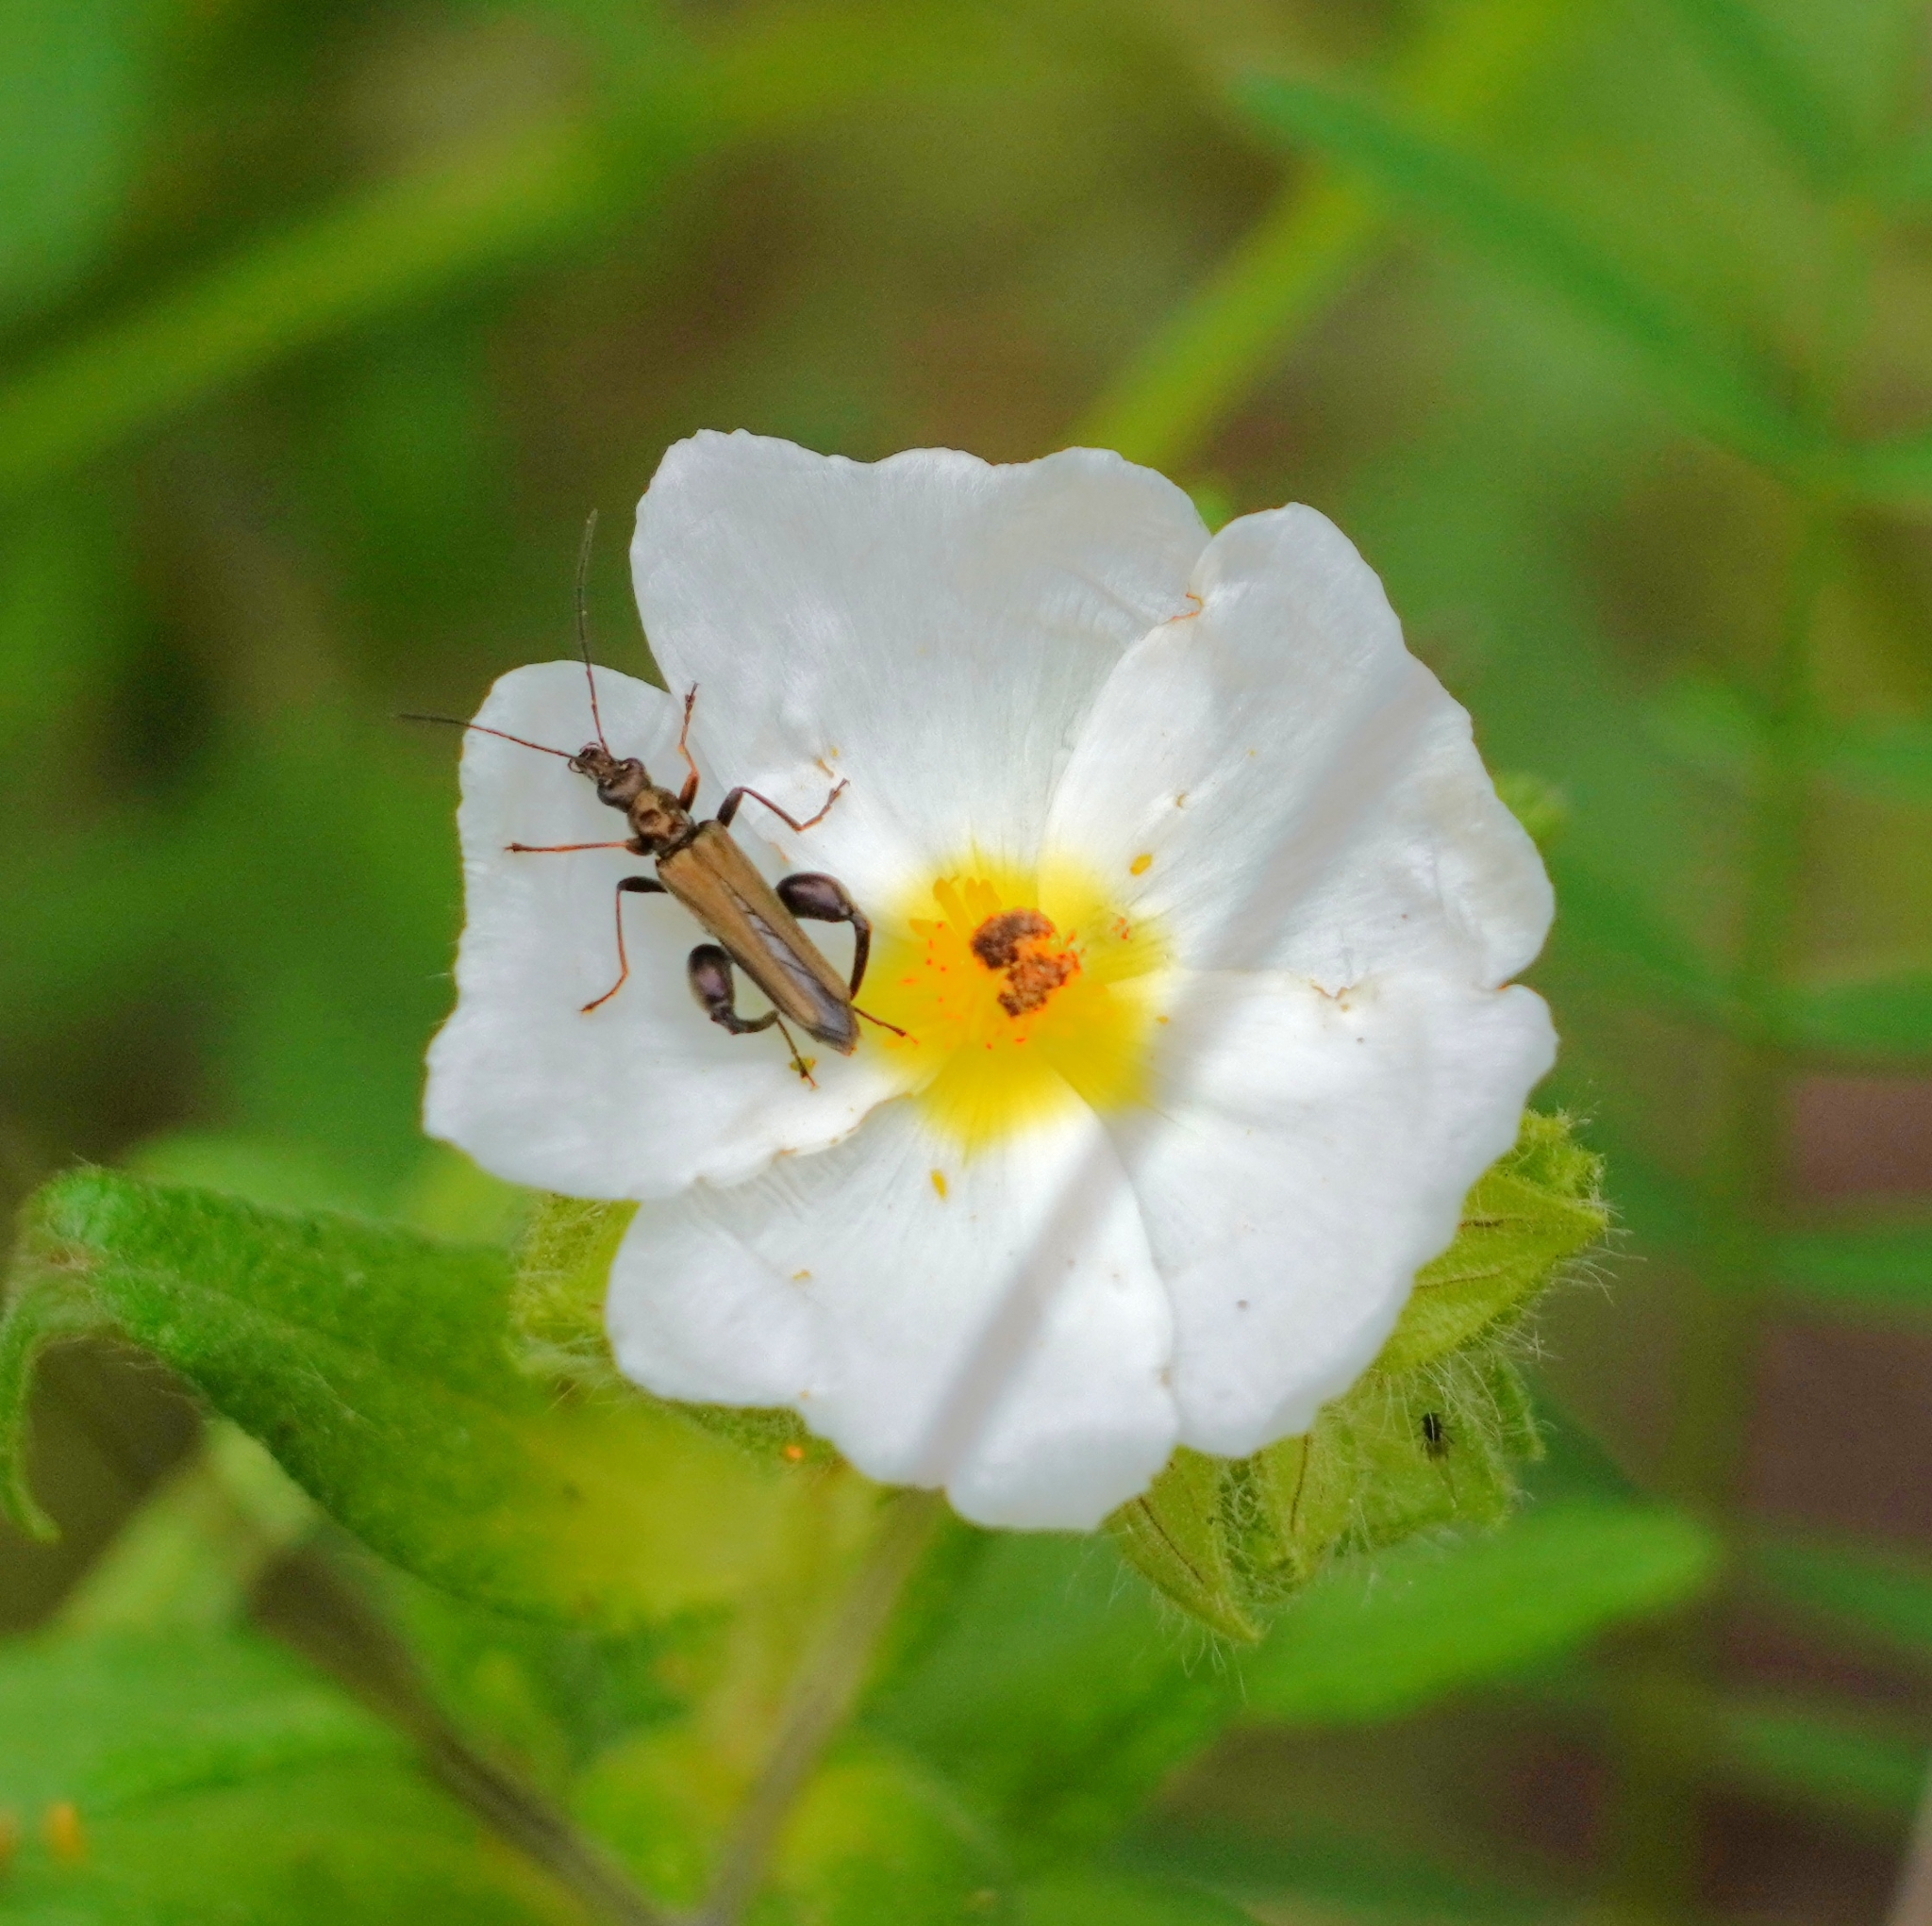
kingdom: Animalia
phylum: Arthropoda
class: Insecta
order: Coleoptera
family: Oedemeridae
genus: Oedemera
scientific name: Oedemera flavipes
